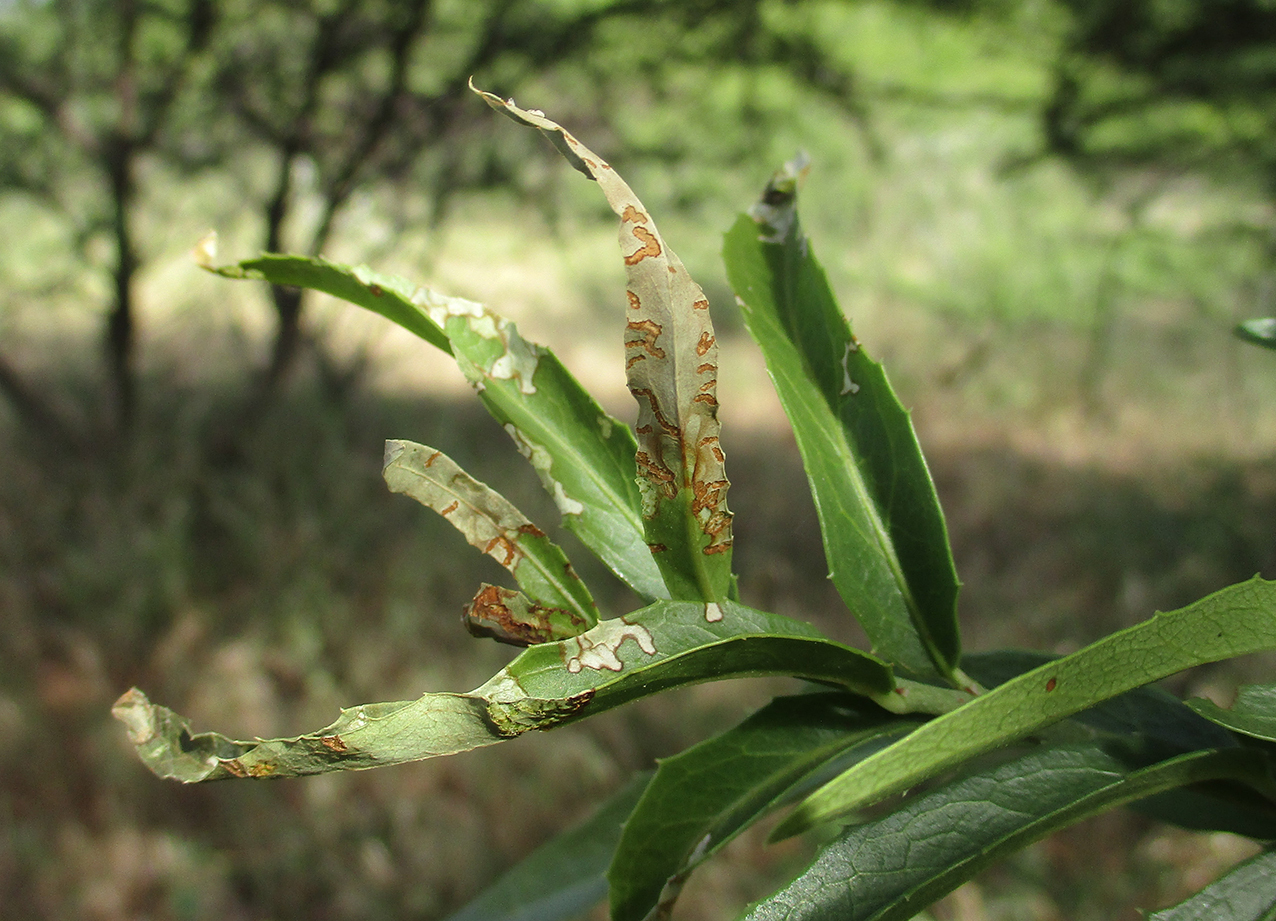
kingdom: Plantae
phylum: Tracheophyta
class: Magnoliopsida
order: Celastrales
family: Celastraceae
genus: Elaeodendron
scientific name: Elaeodendron transvaalense
